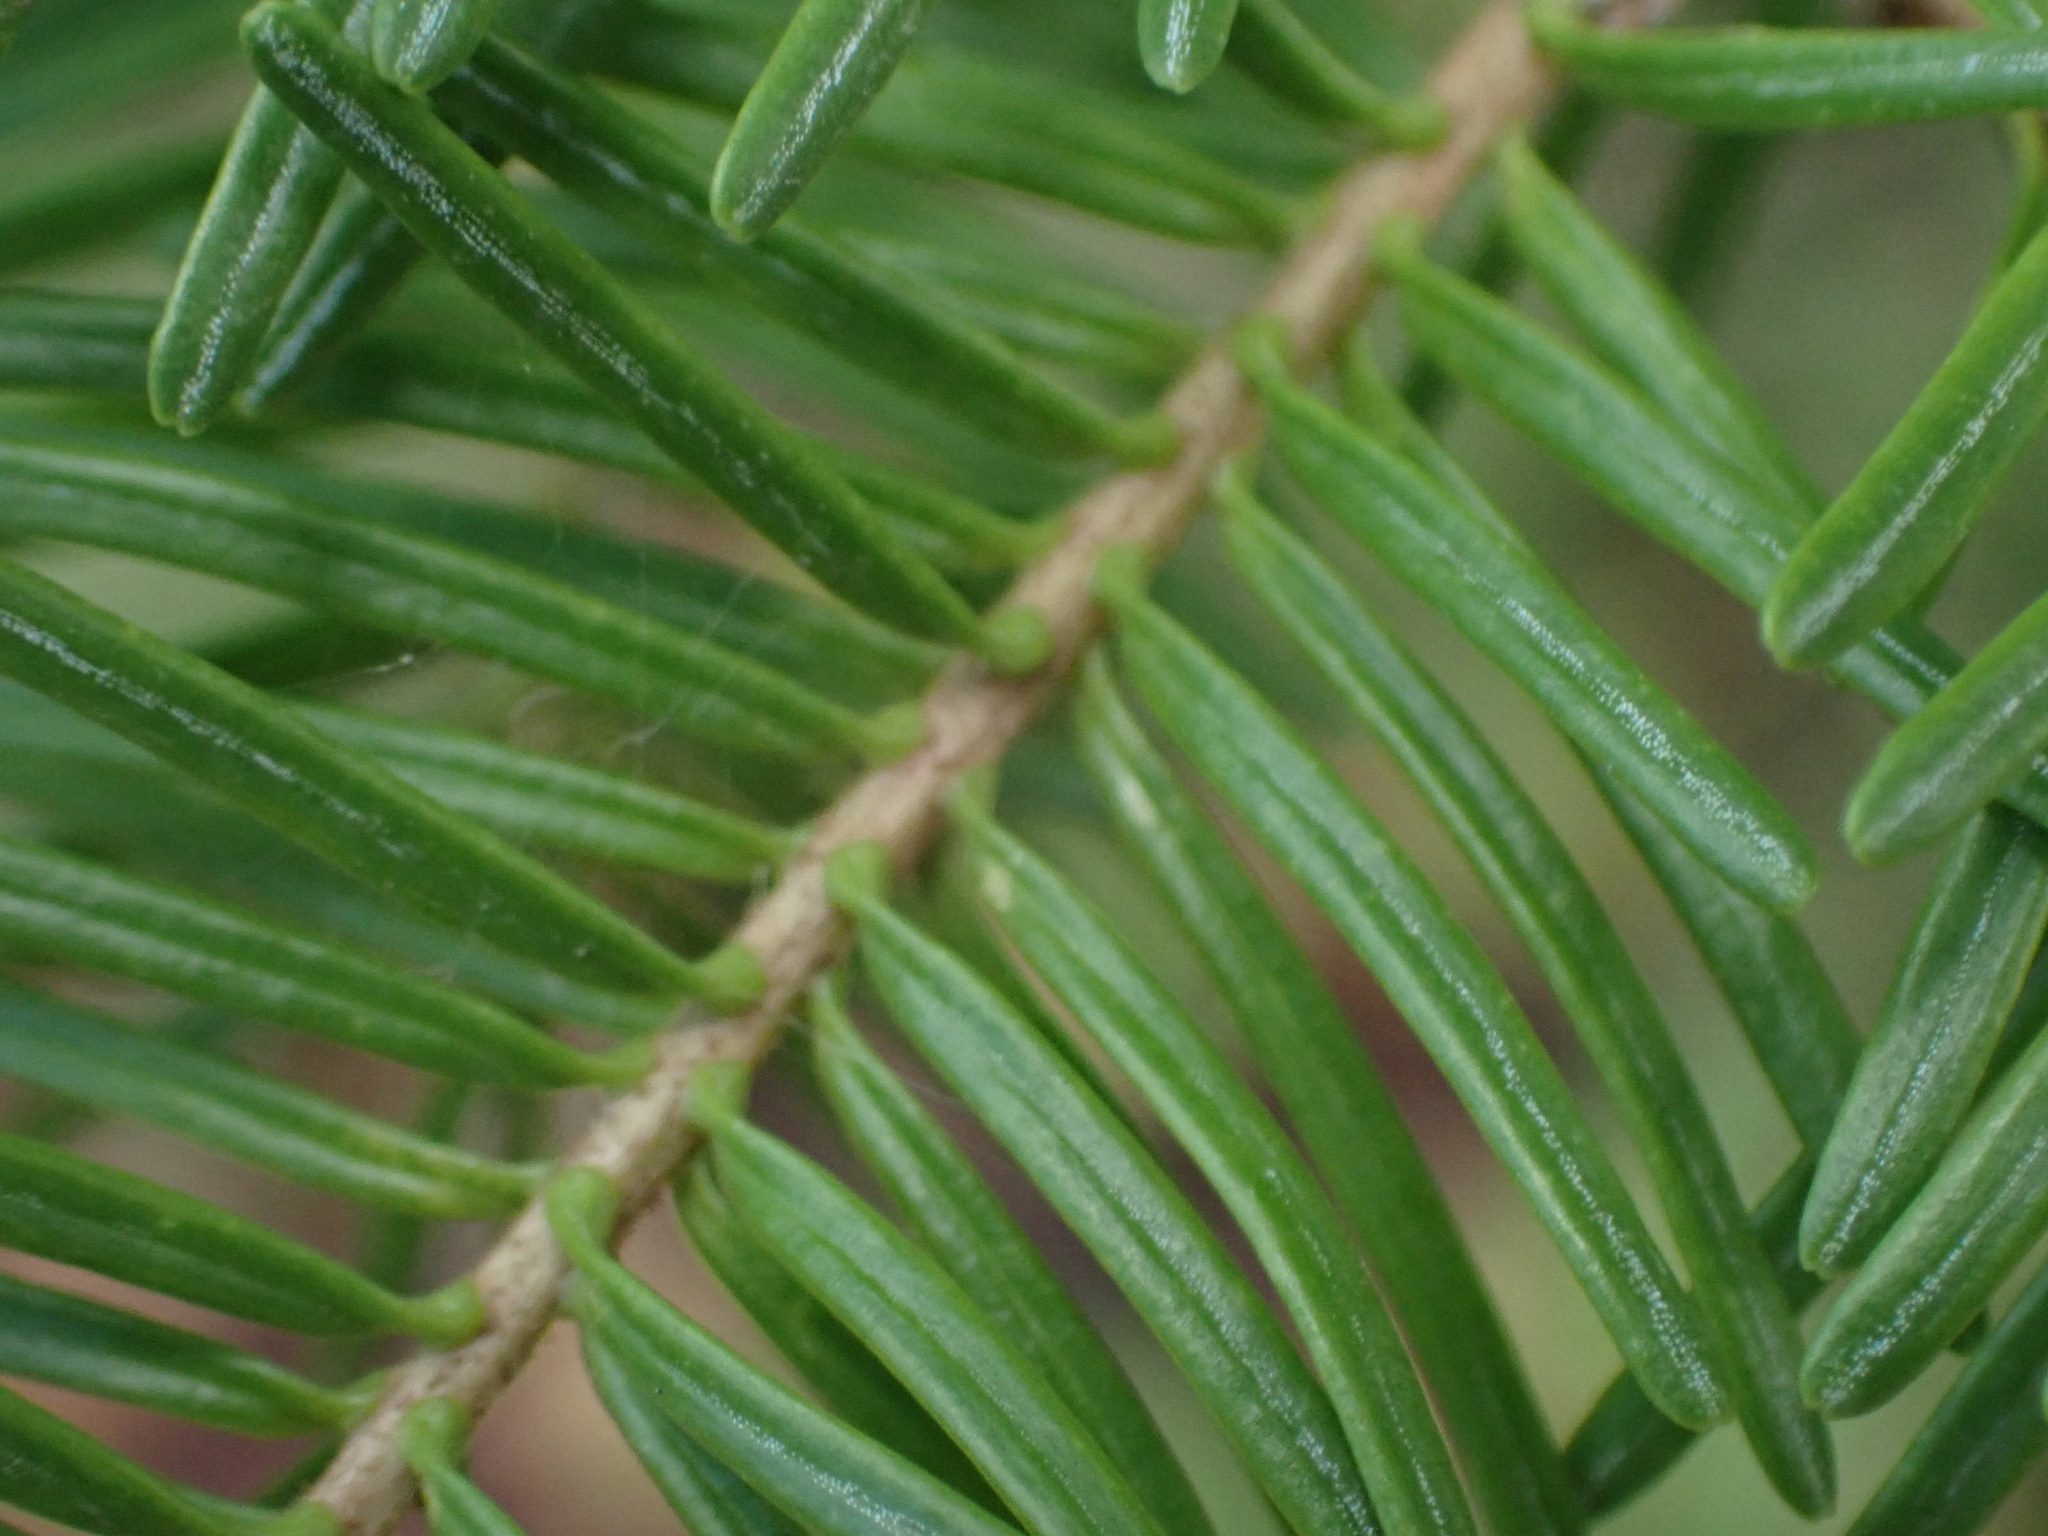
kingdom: Plantae
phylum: Tracheophyta
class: Pinopsida
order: Pinales
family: Pinaceae
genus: Abies
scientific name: Abies balsamea
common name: Balsam fir
